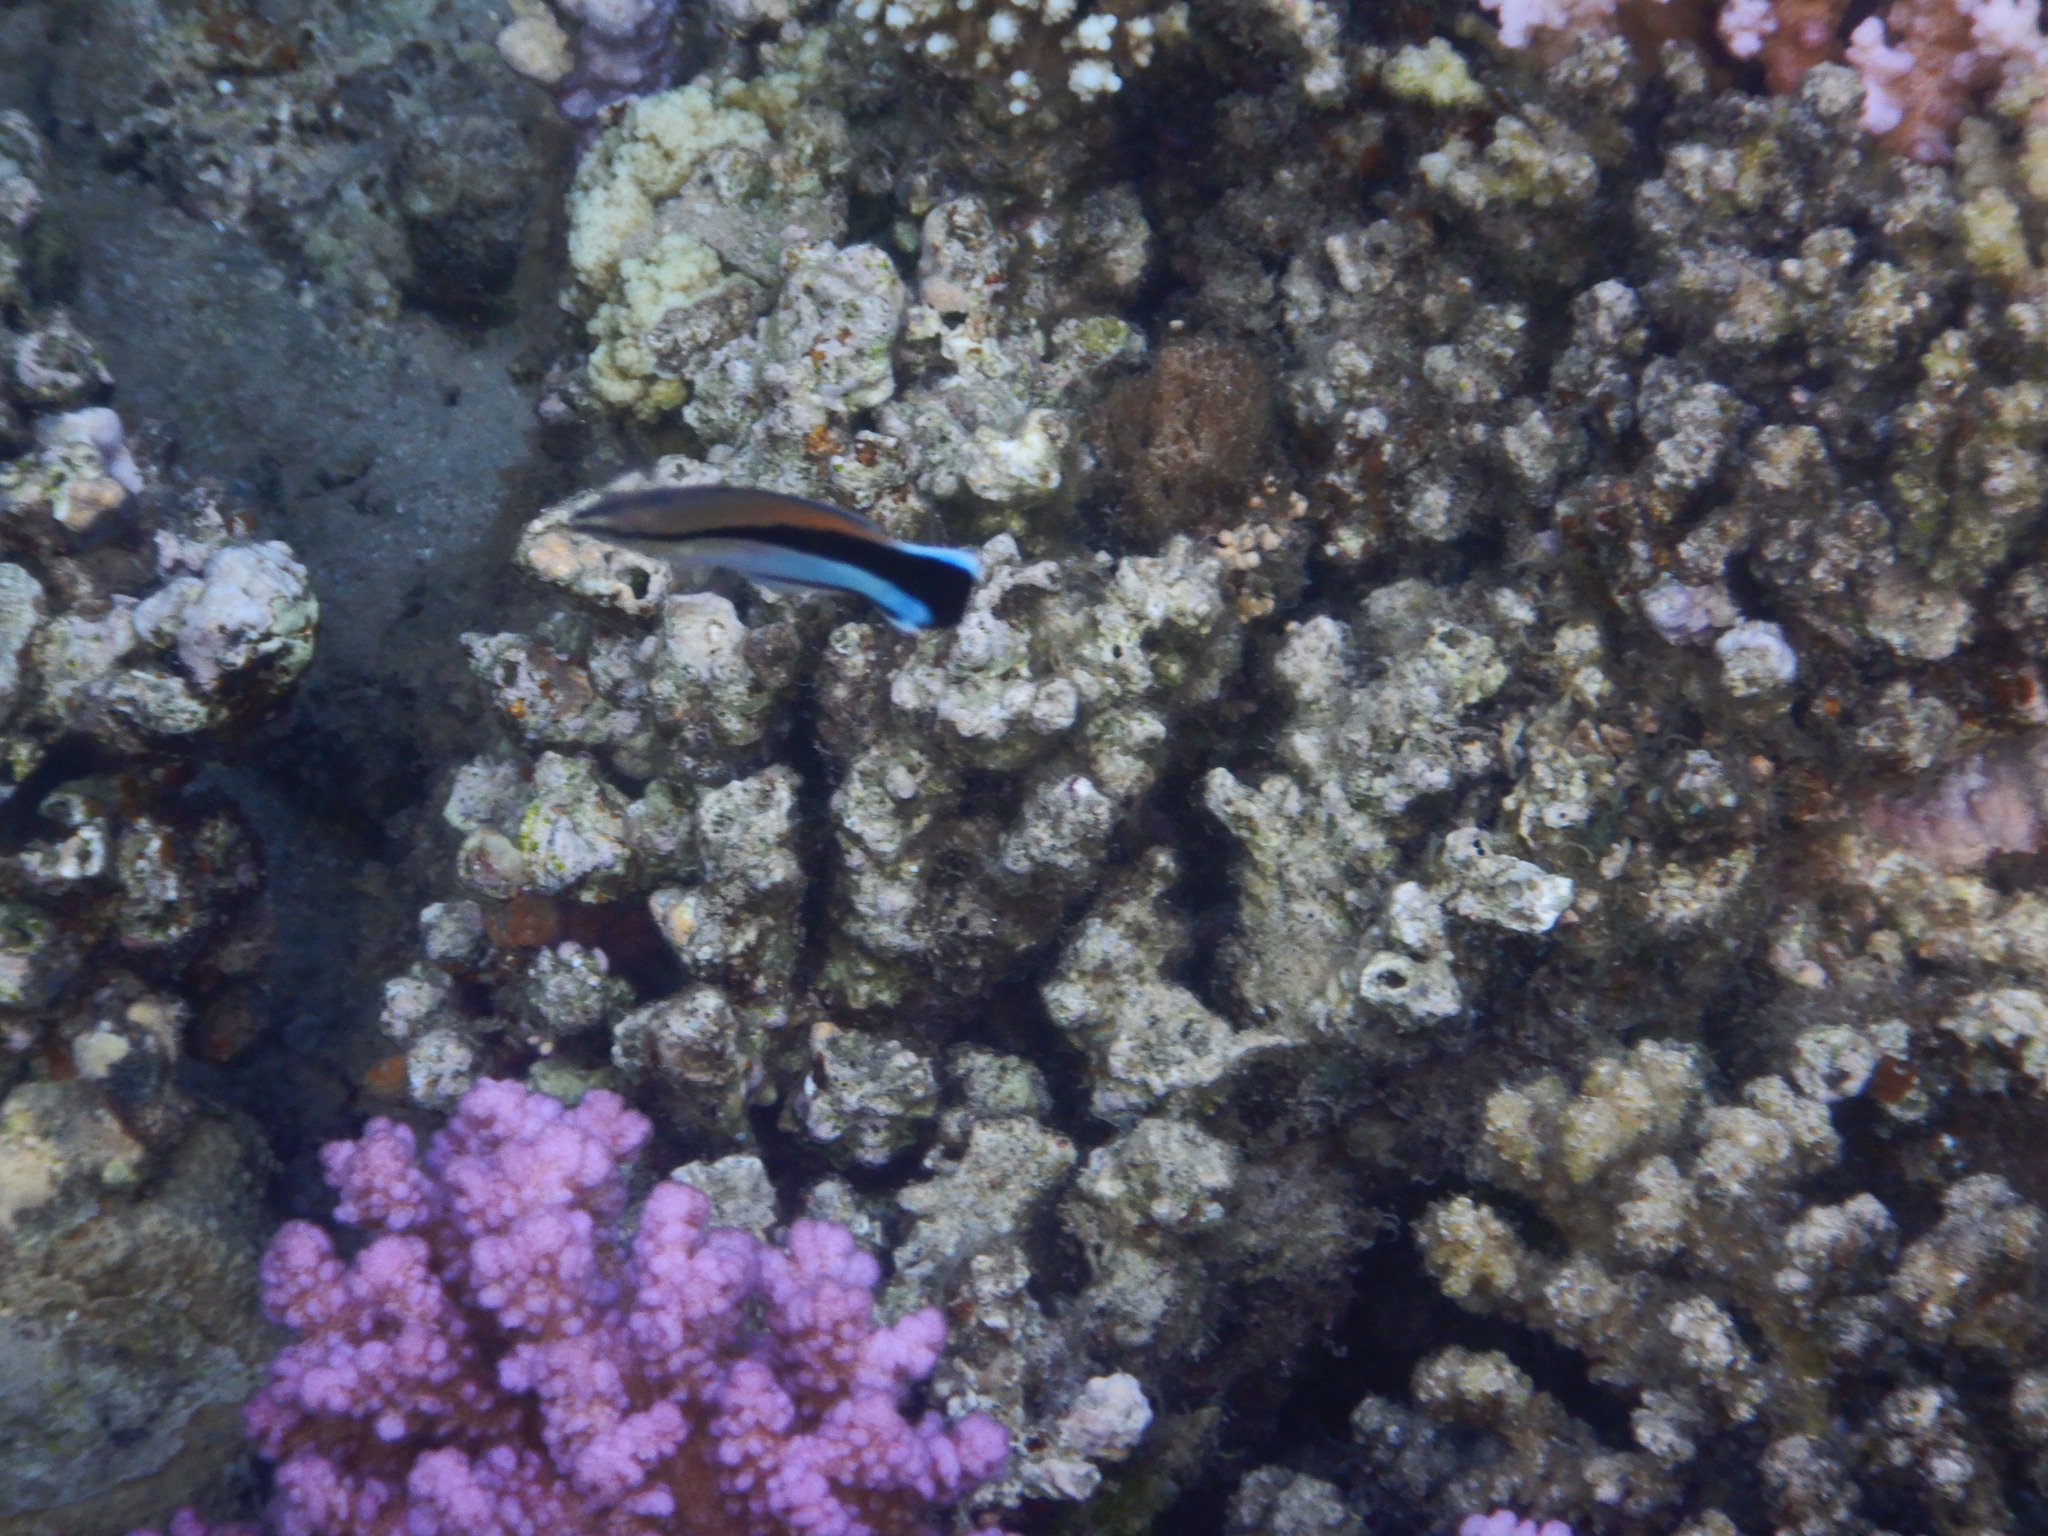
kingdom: Animalia
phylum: Chordata
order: Perciformes
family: Labridae
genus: Labroides
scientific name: Labroides dimidiatus
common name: Blue diesel wrasse
